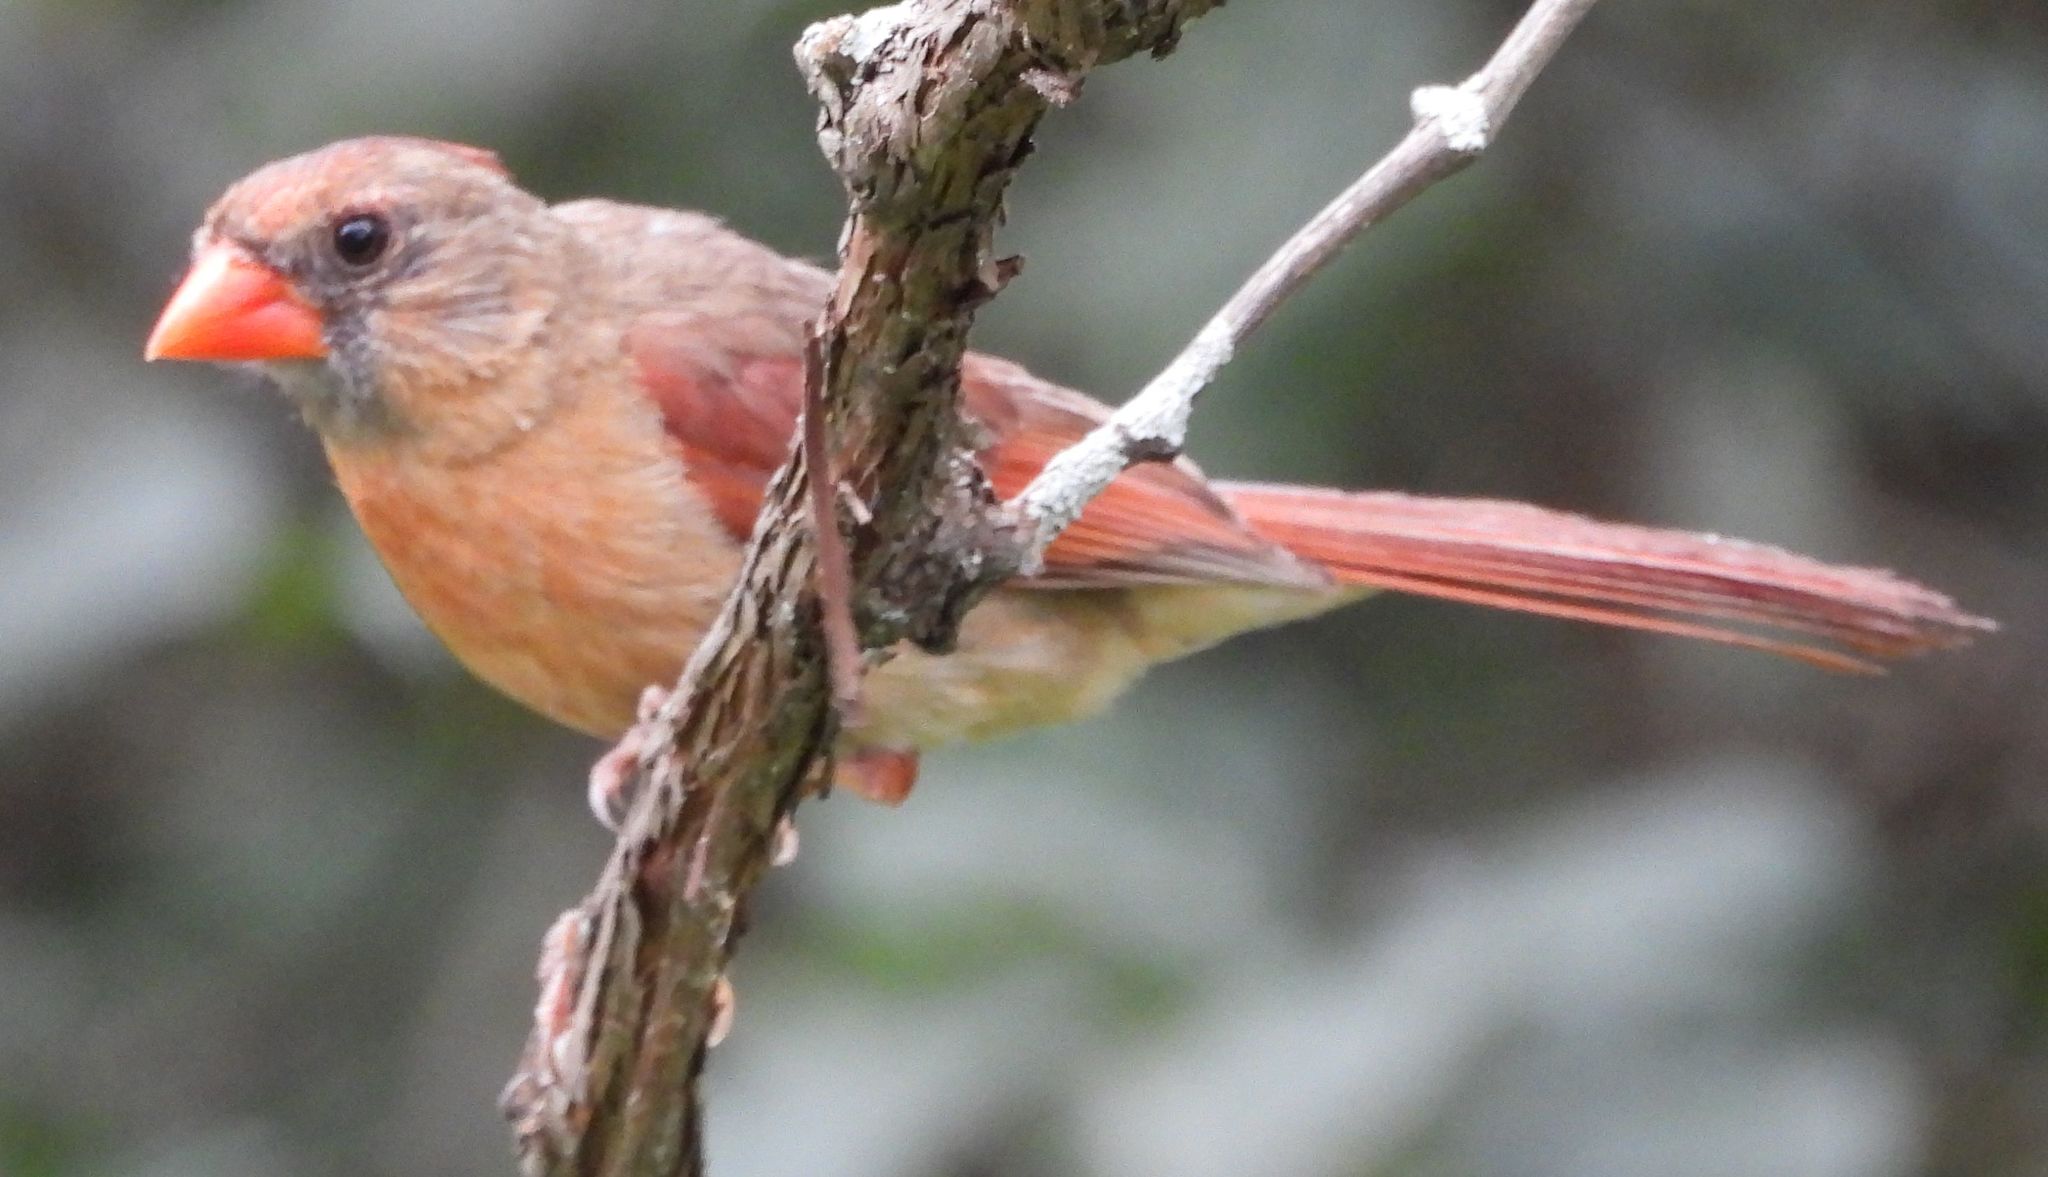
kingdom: Animalia
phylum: Chordata
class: Aves
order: Passeriformes
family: Cardinalidae
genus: Cardinalis
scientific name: Cardinalis cardinalis
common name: Northern cardinal
